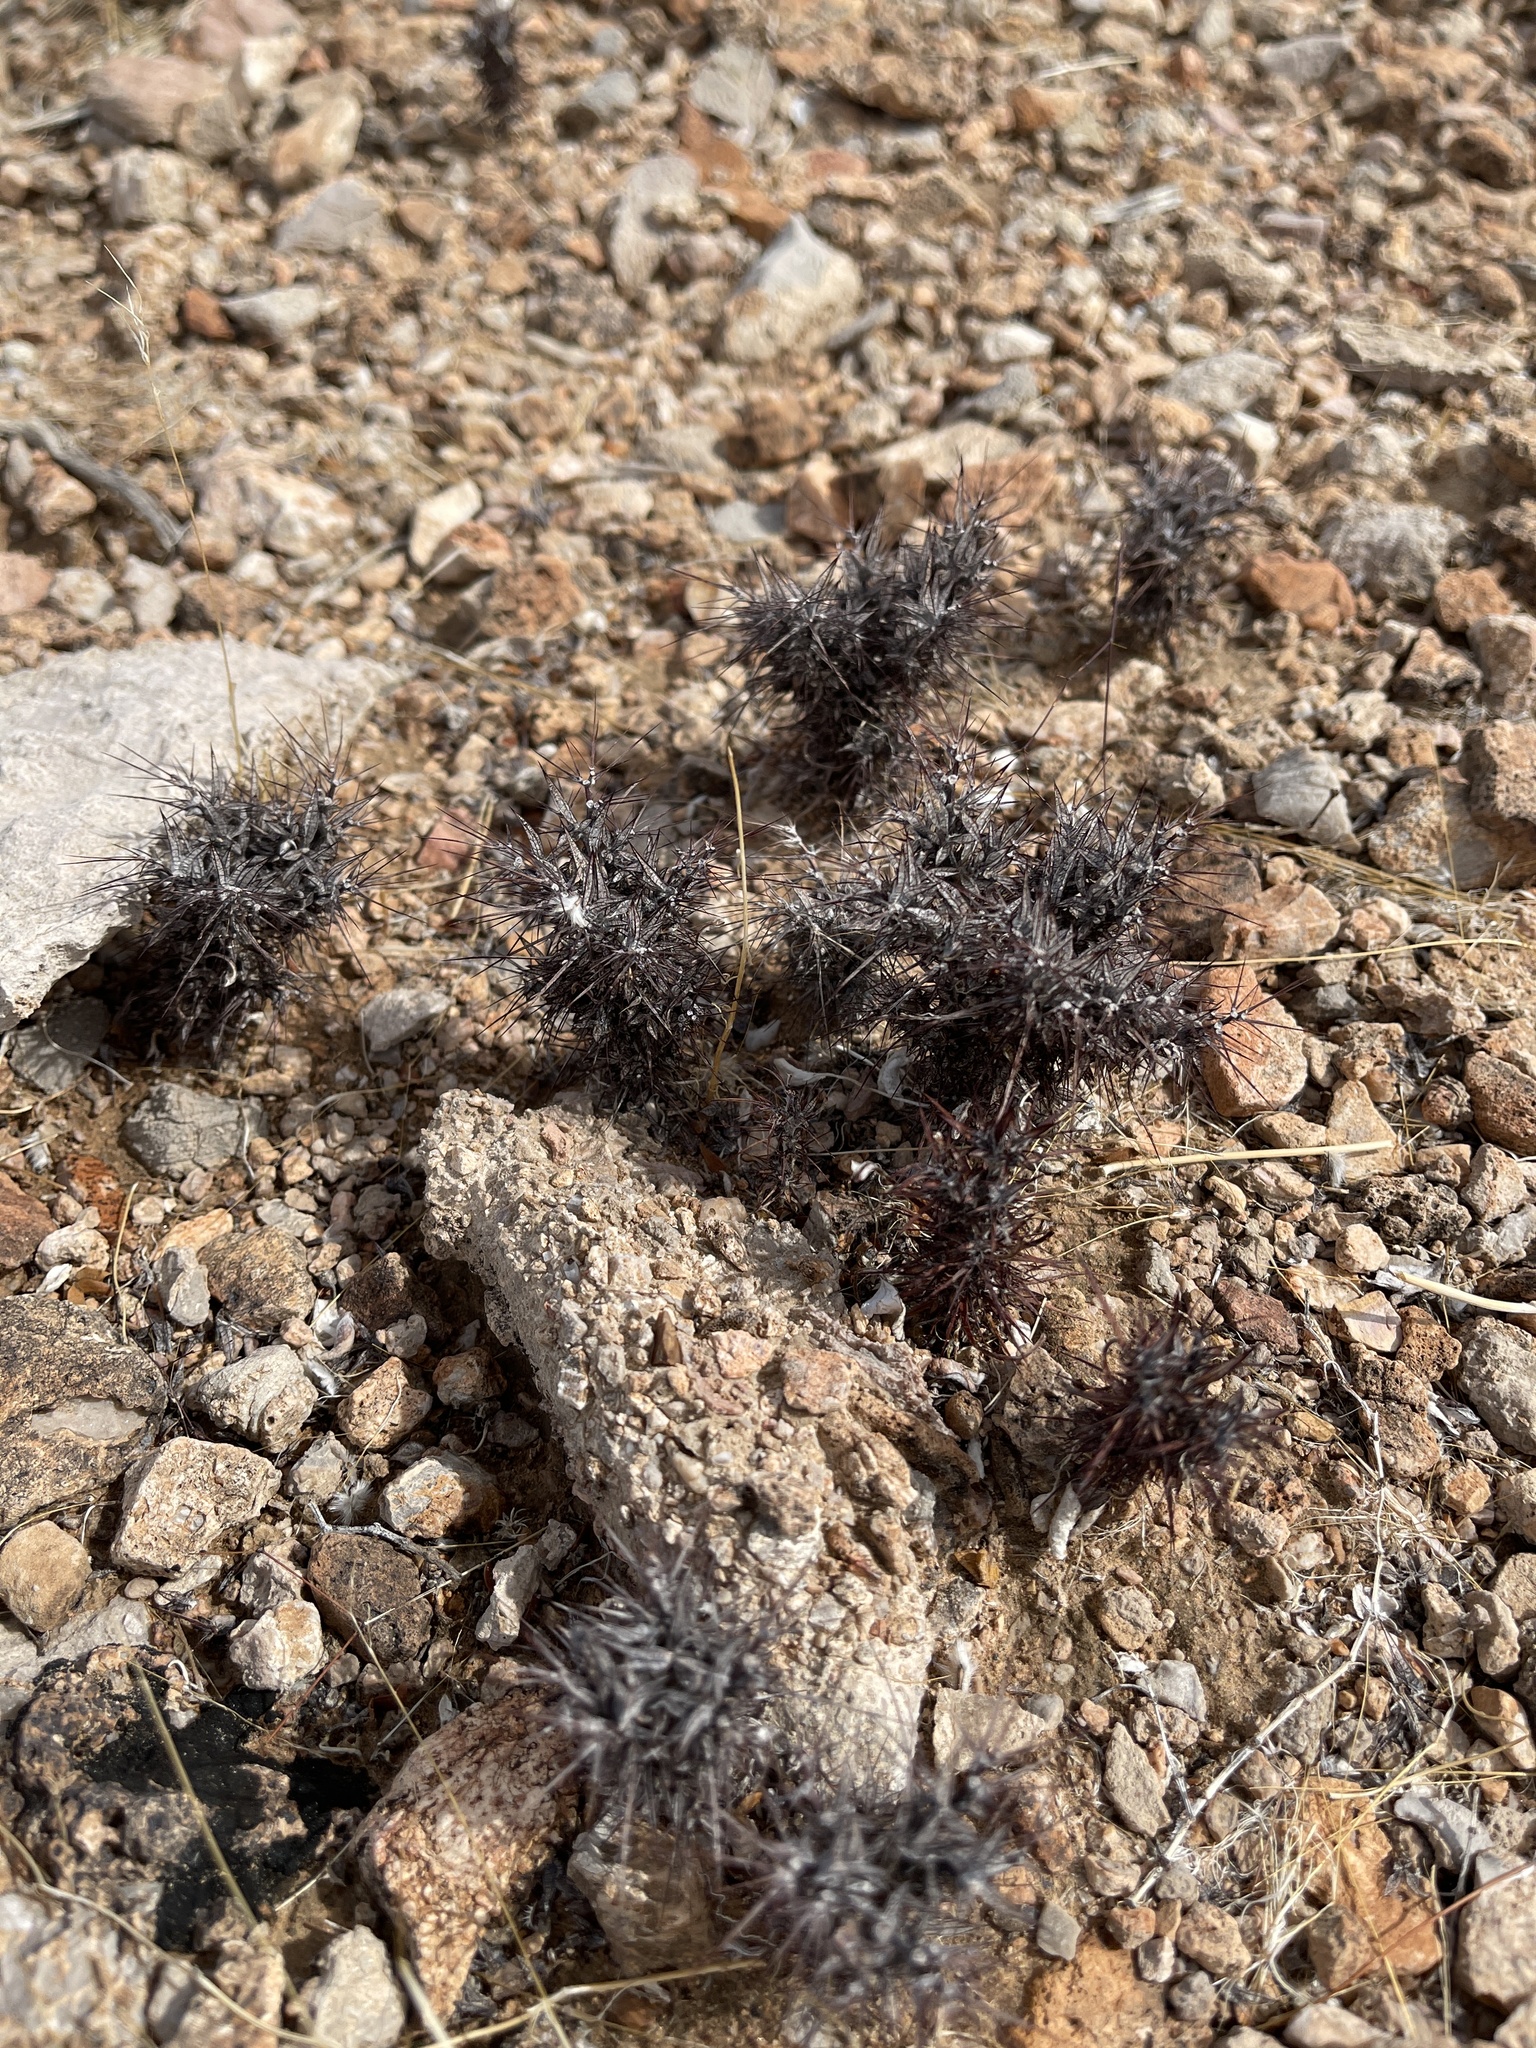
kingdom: Plantae
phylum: Tracheophyta
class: Magnoliopsida
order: Caryophyllales
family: Polygonaceae
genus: Chorizanthe
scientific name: Chorizanthe rigida
